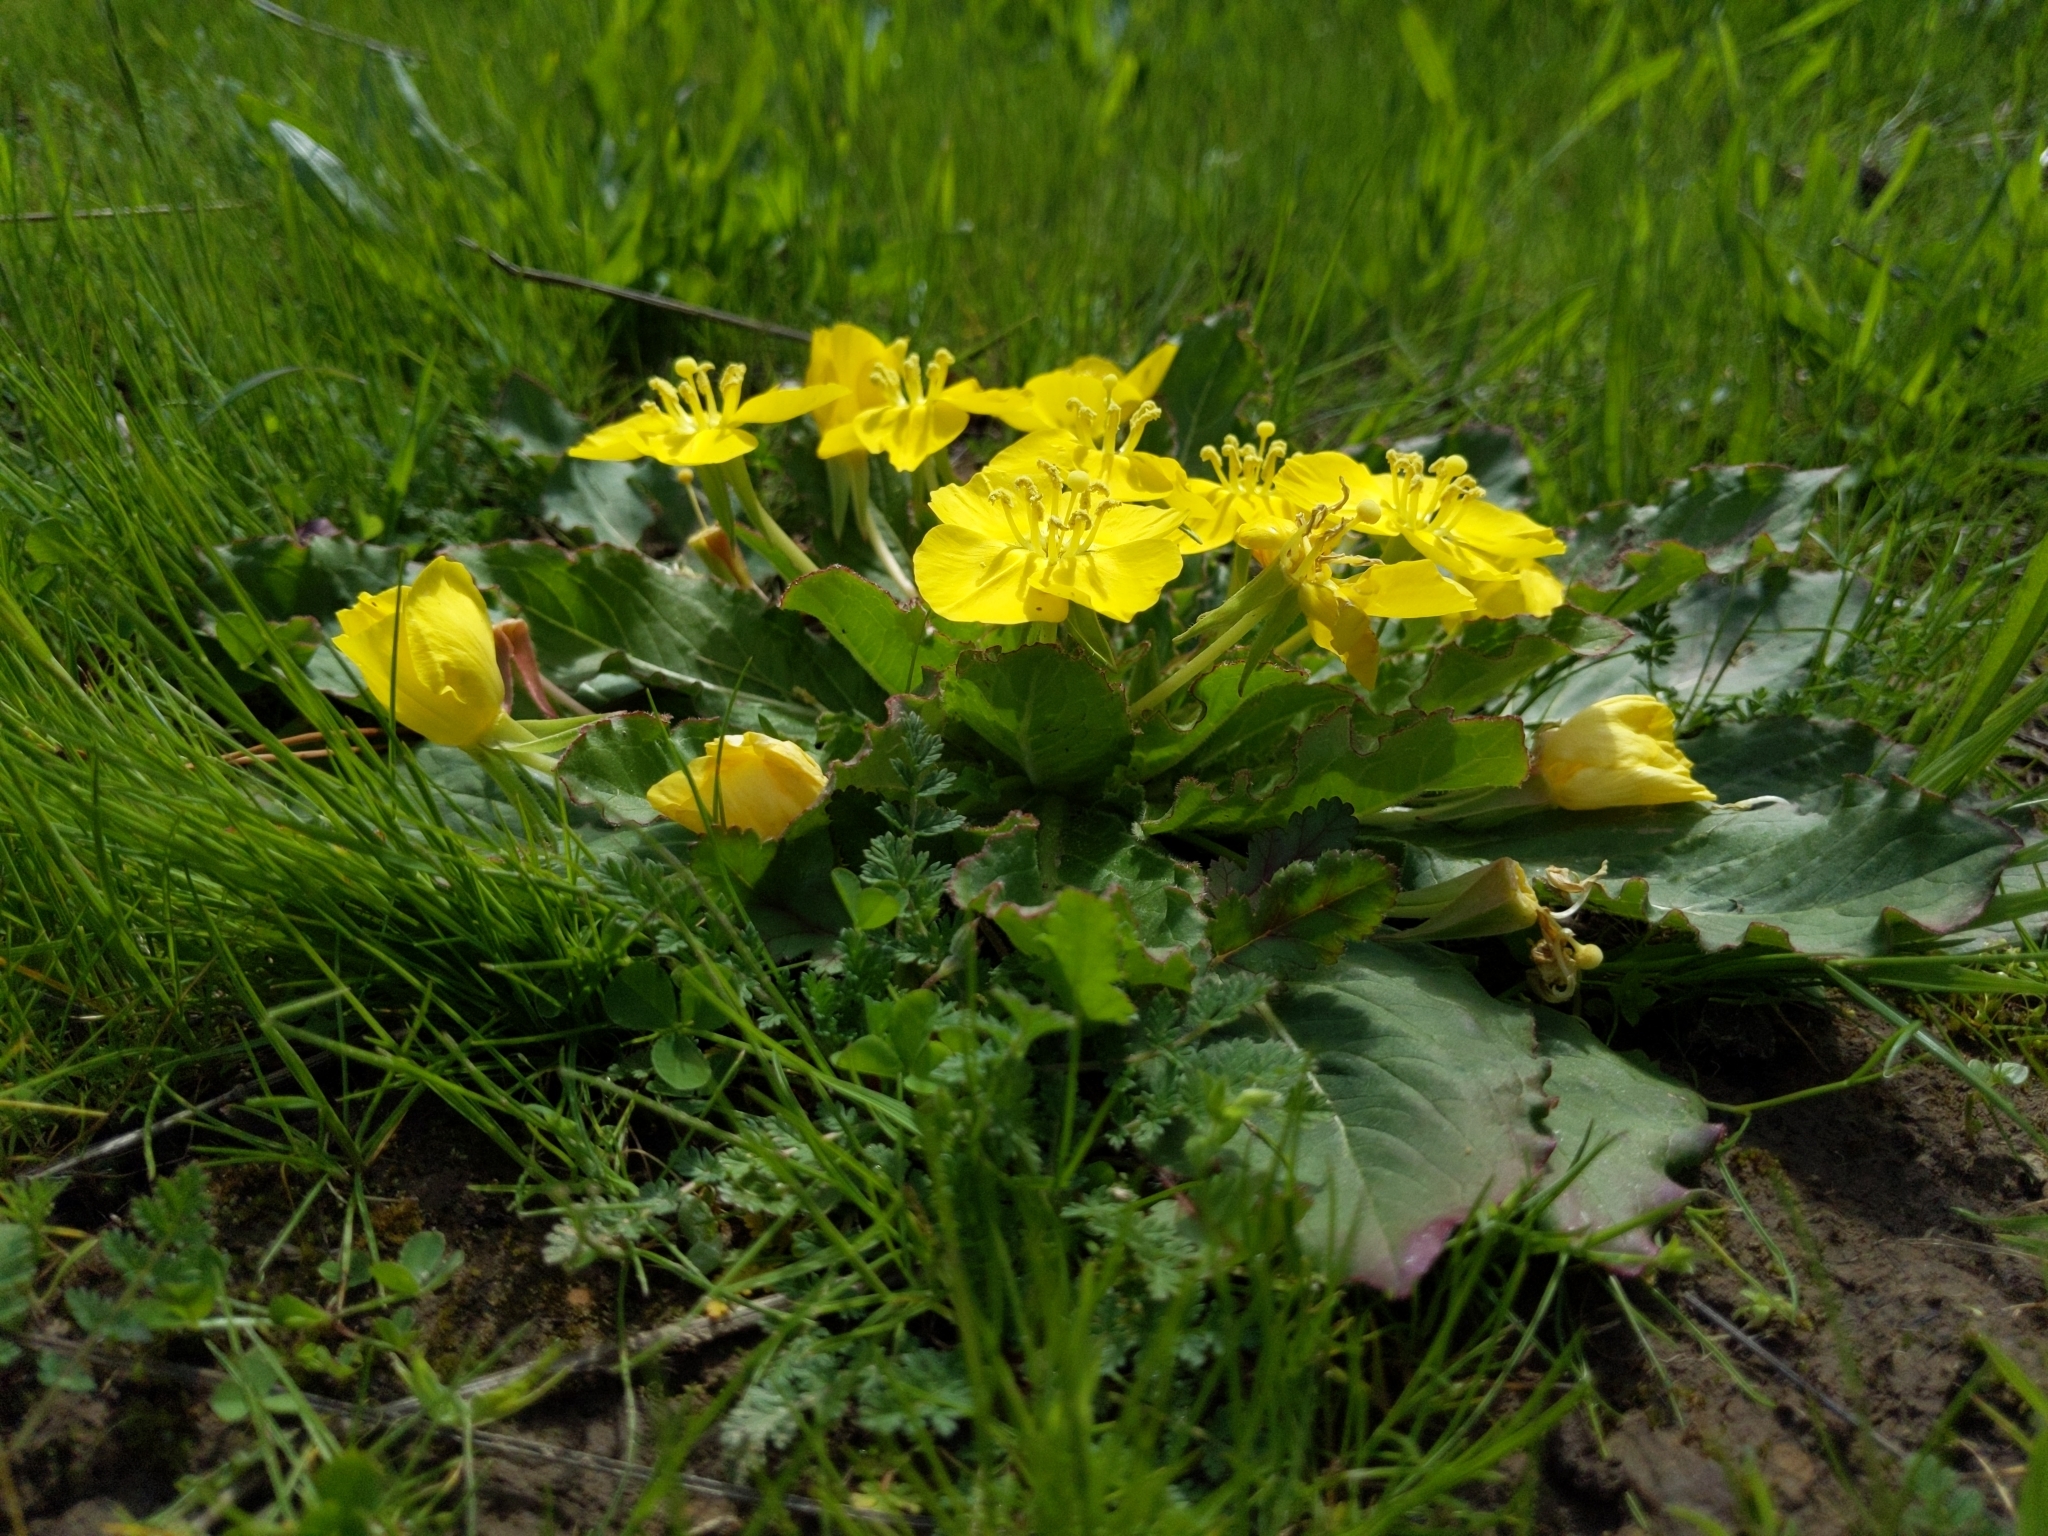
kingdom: Plantae
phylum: Tracheophyta
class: Magnoliopsida
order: Myrtales
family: Onagraceae
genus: Taraxia
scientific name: Taraxia ovata
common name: Goldeneggs
